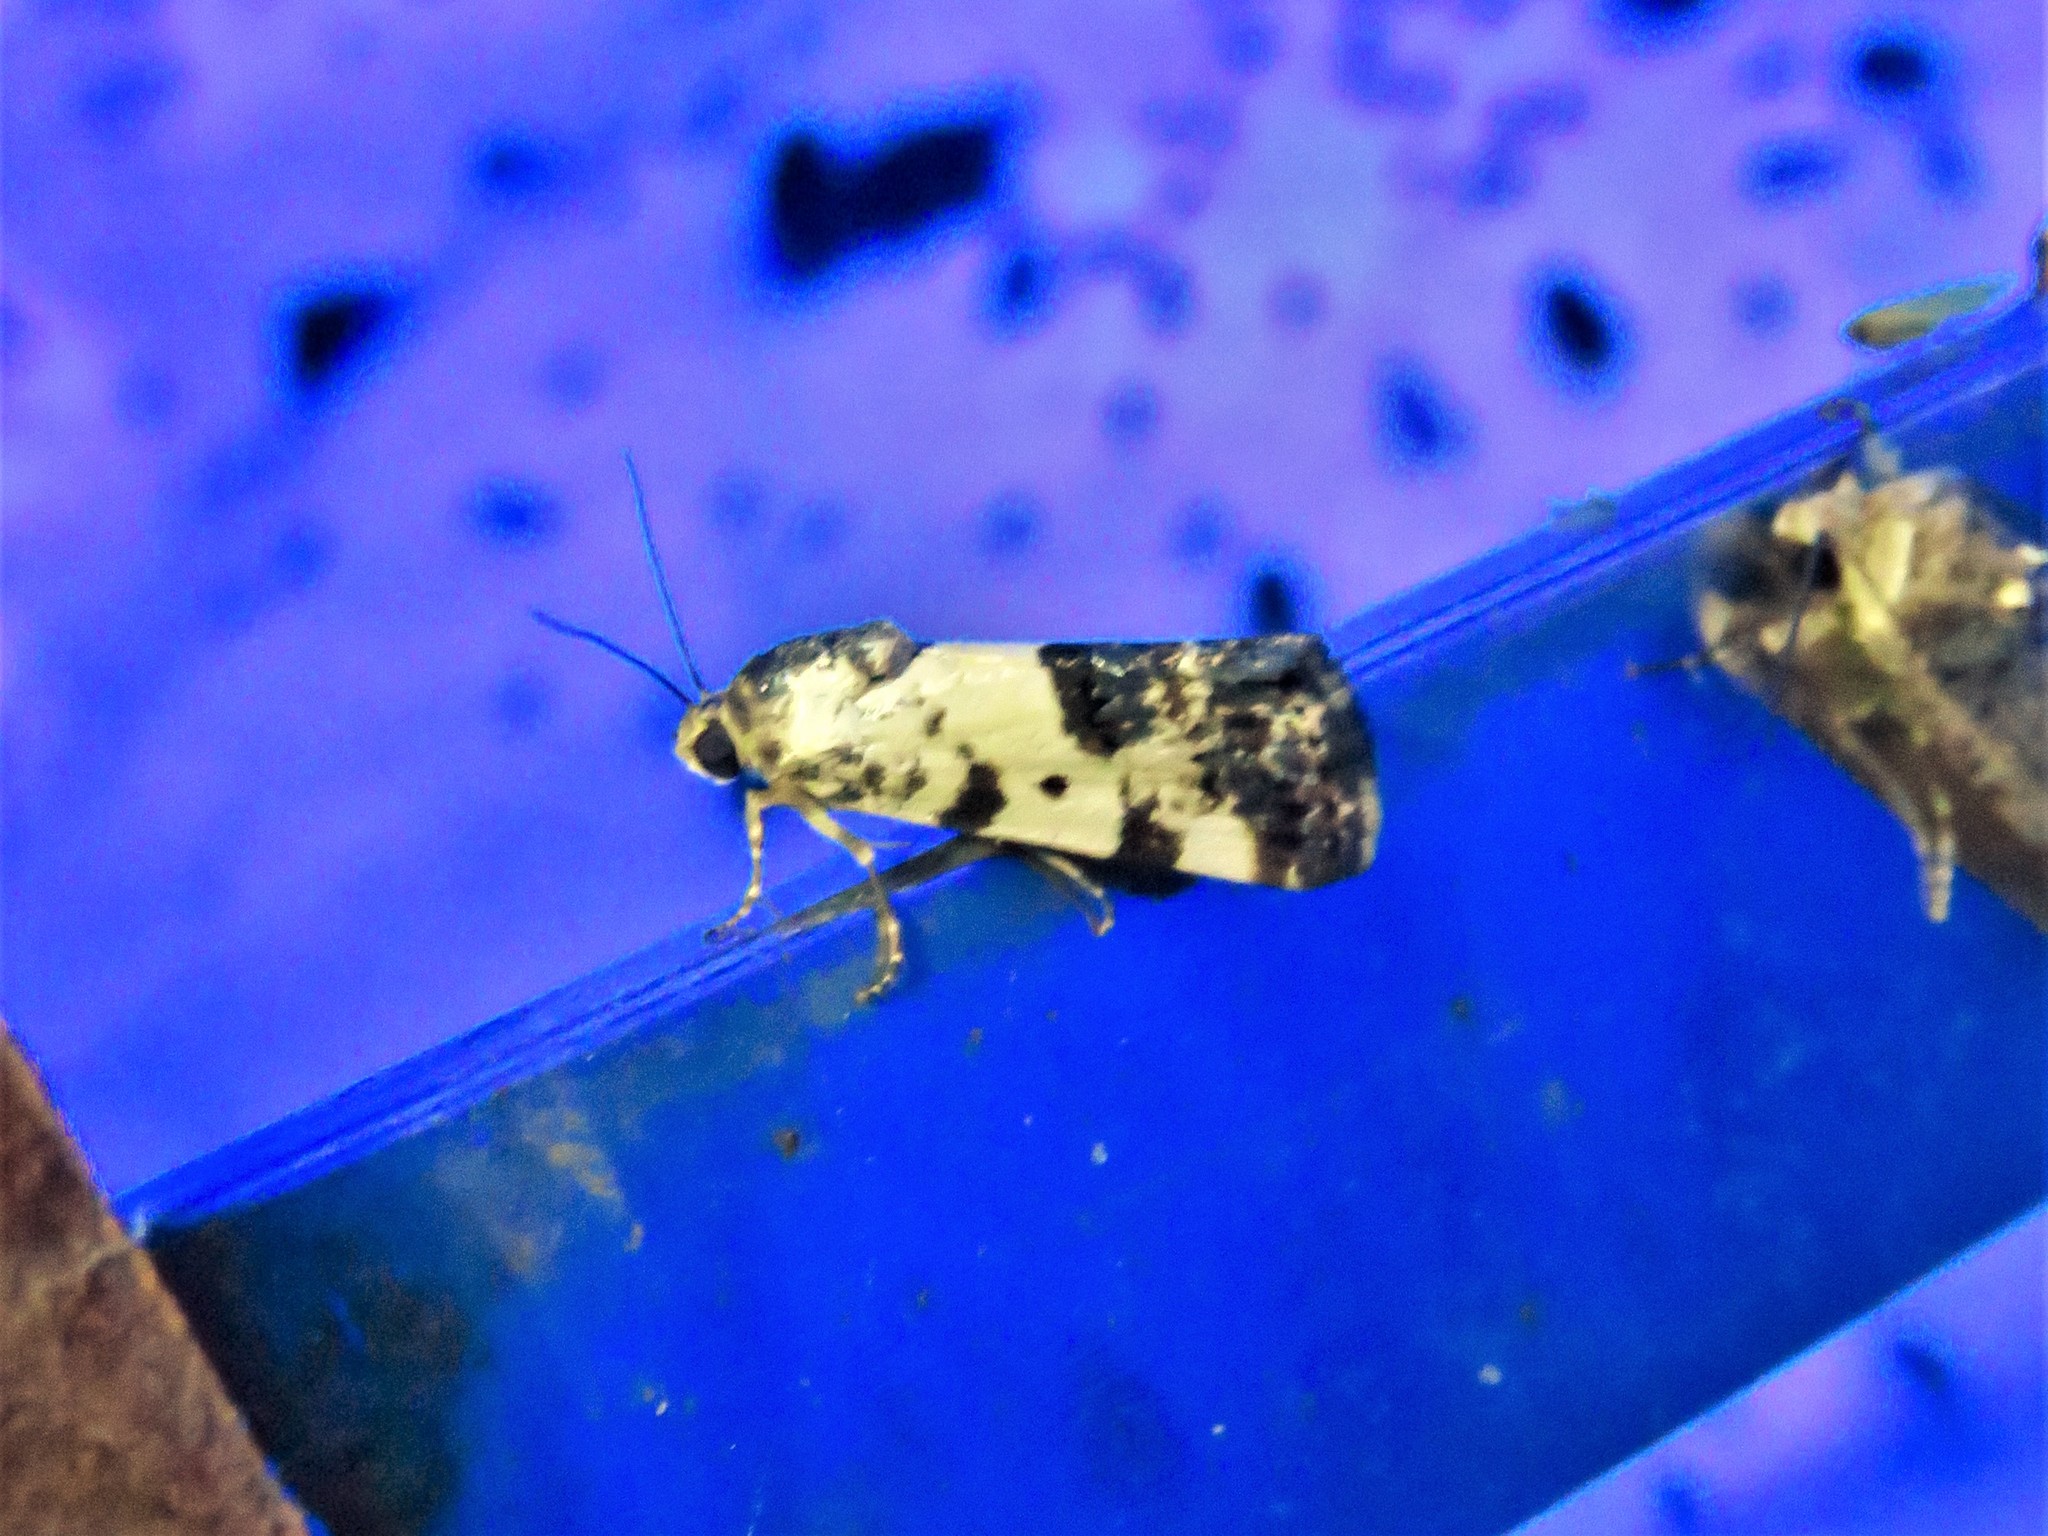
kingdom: Animalia
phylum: Arthropoda
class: Insecta
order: Lepidoptera
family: Noctuidae
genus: Acontia
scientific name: Acontia aprica
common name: Nun
